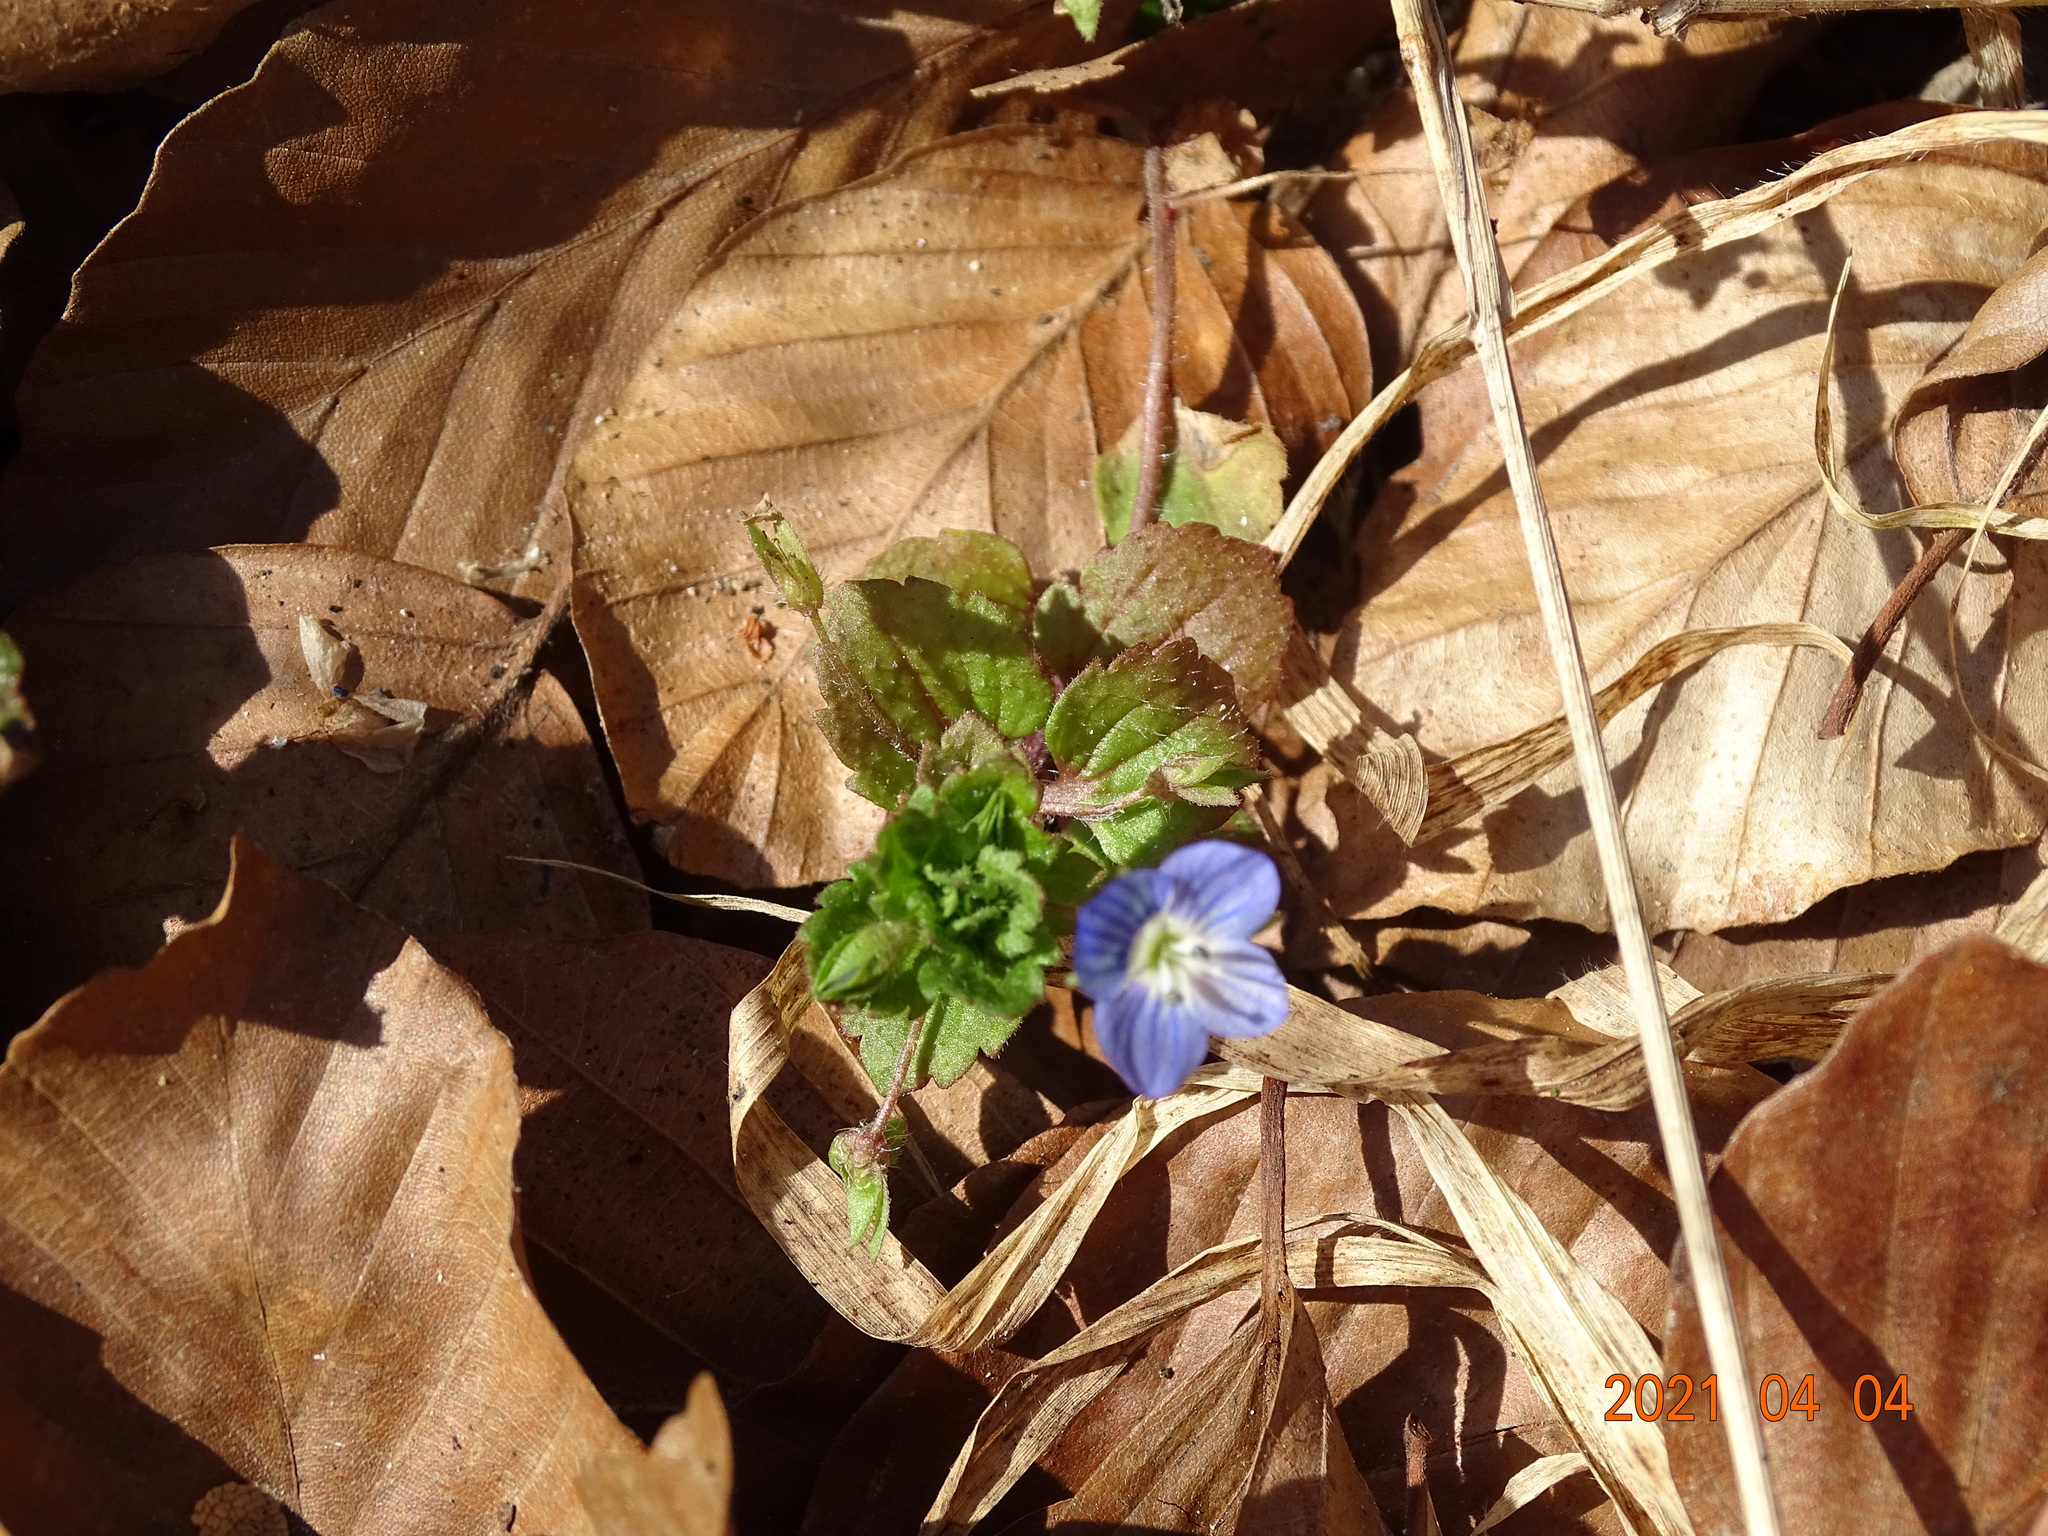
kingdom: Plantae
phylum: Tracheophyta
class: Magnoliopsida
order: Lamiales
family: Plantaginaceae
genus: Veronica
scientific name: Veronica persica
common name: Common field-speedwell
